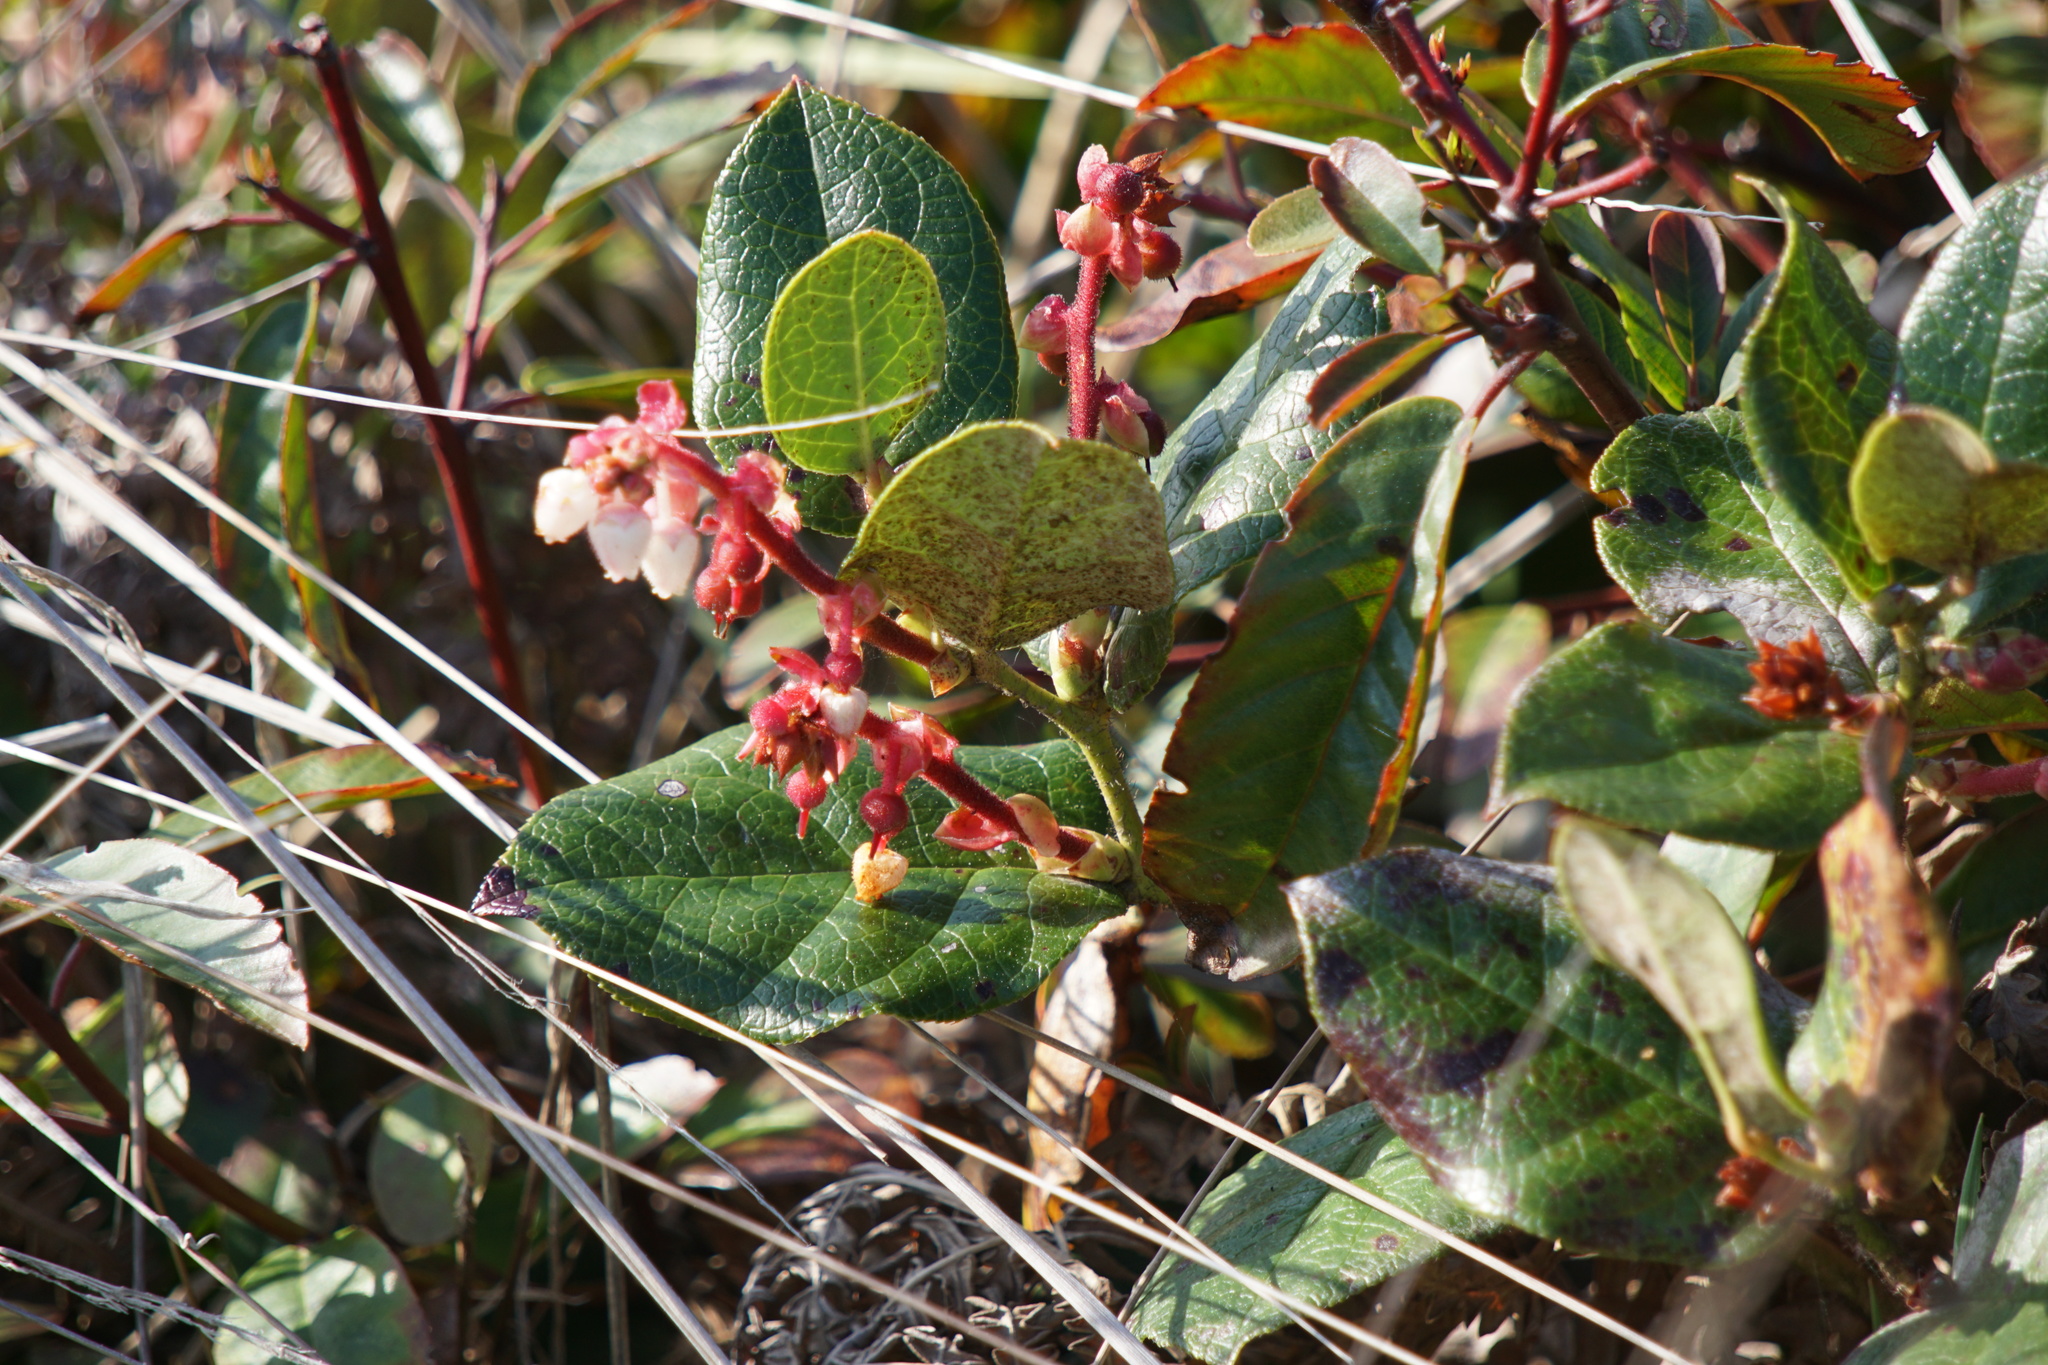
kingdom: Plantae
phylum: Tracheophyta
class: Magnoliopsida
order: Ericales
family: Ericaceae
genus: Gaultheria
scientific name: Gaultheria shallon
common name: Shallon
